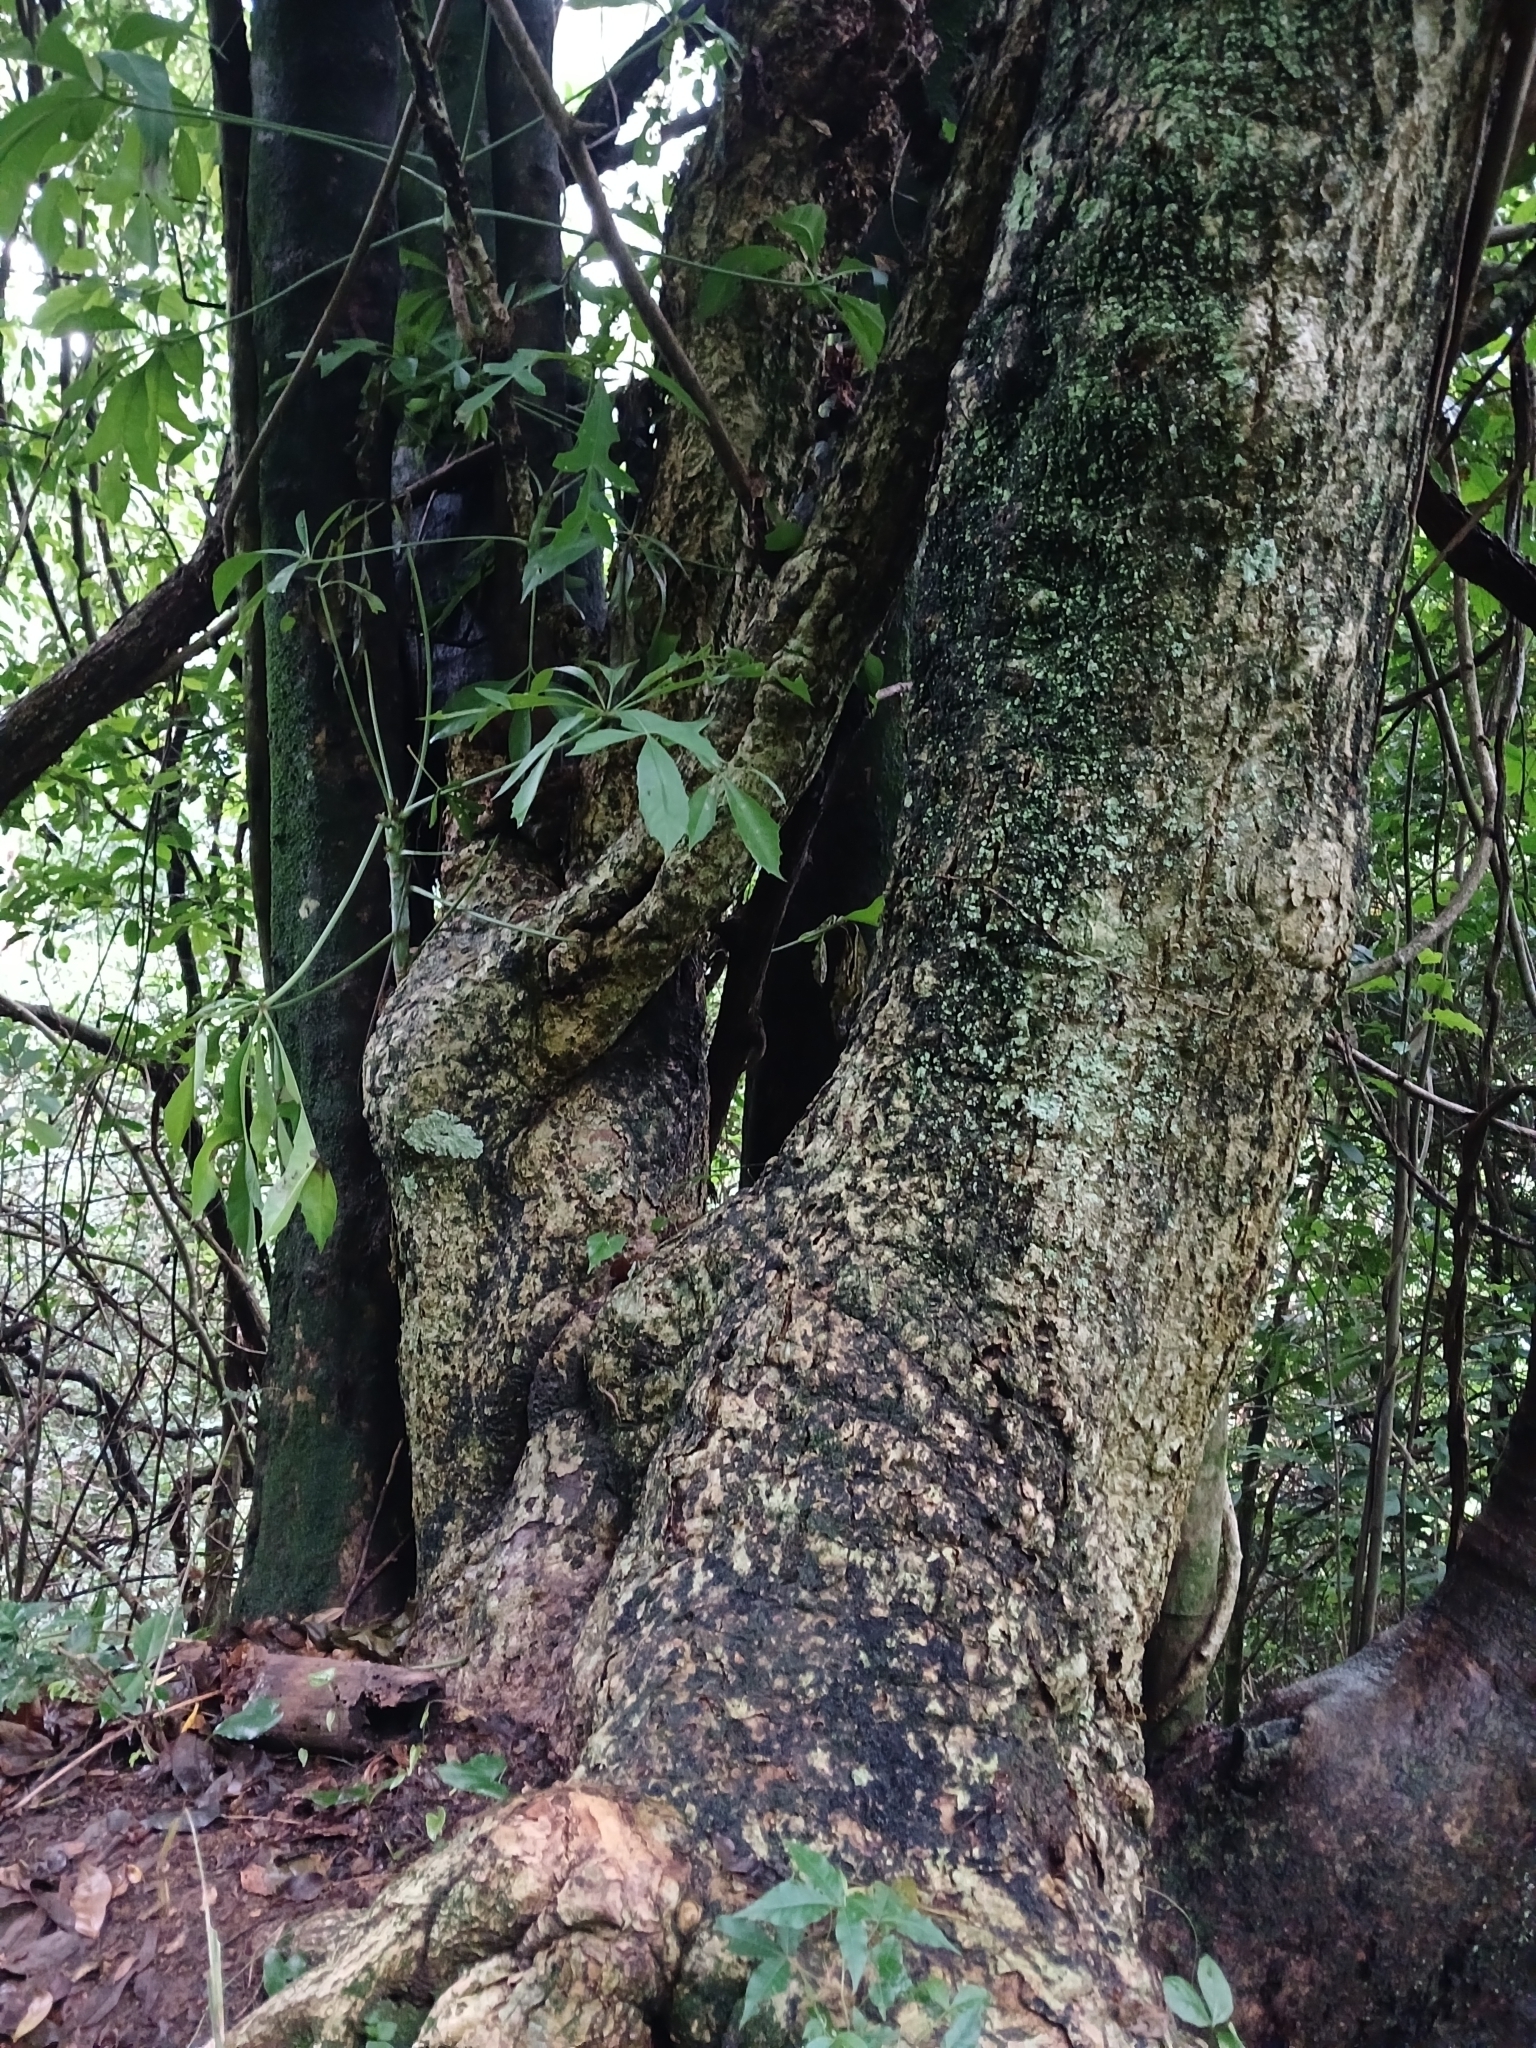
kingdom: Plantae
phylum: Tracheophyta
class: Magnoliopsida
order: Apiales
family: Araliaceae
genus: Cussonia
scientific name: Cussonia spicata
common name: Common cabbagetree
